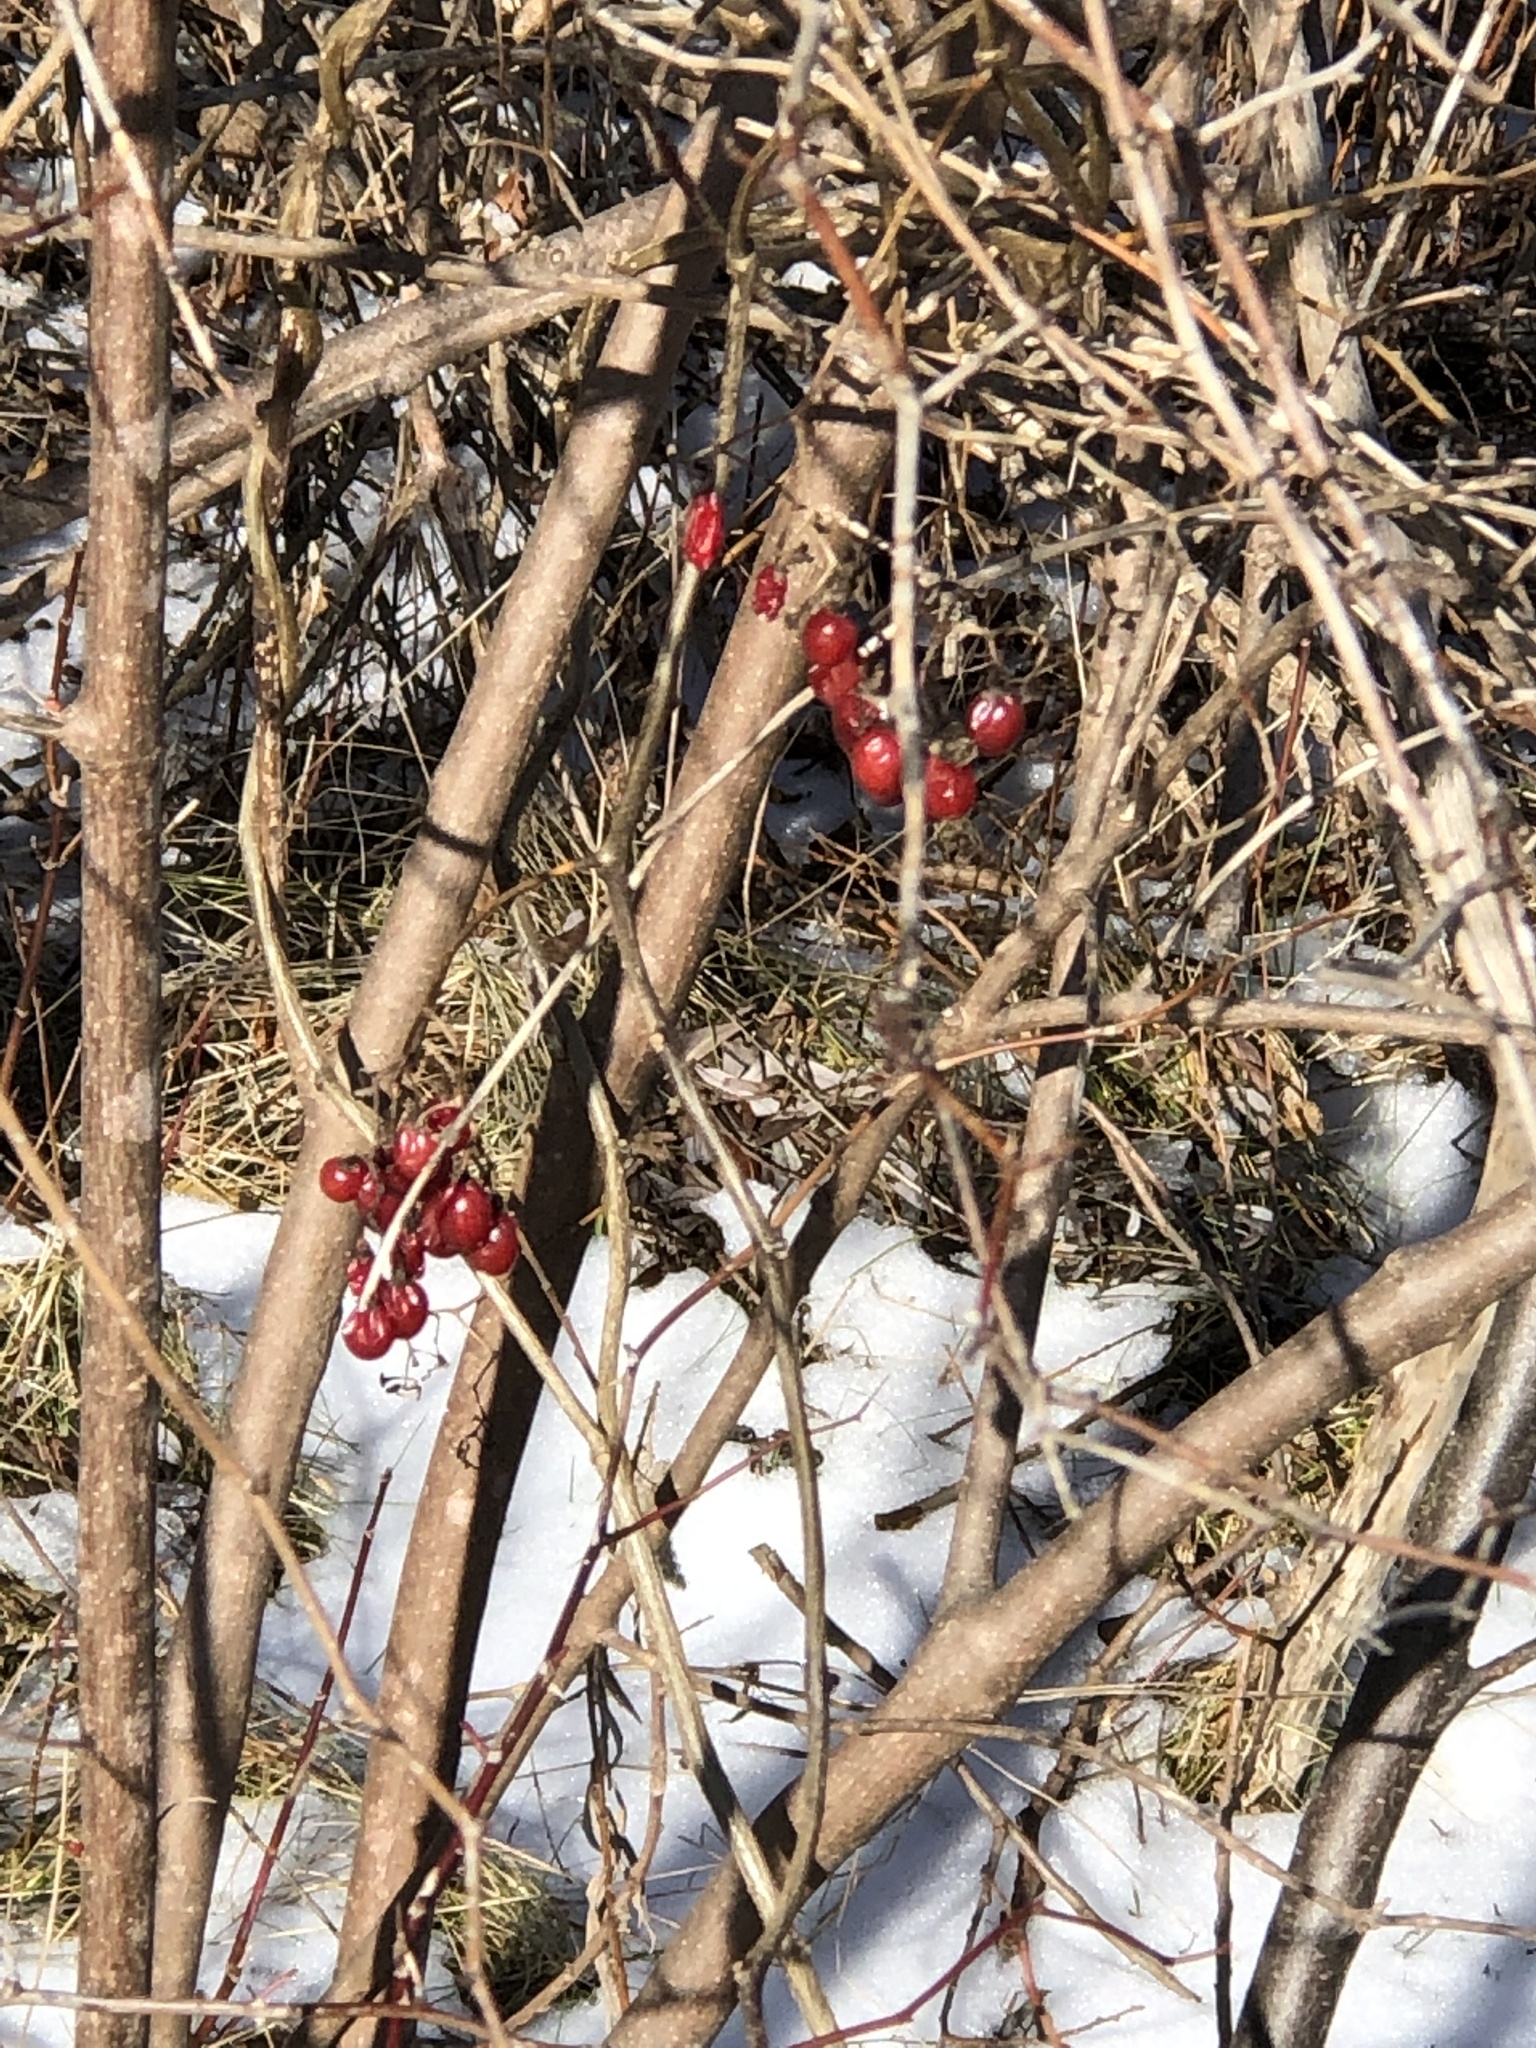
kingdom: Plantae
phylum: Tracheophyta
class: Magnoliopsida
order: Dipsacales
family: Viburnaceae
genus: Viburnum
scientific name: Viburnum opulus
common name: Guelder-rose
